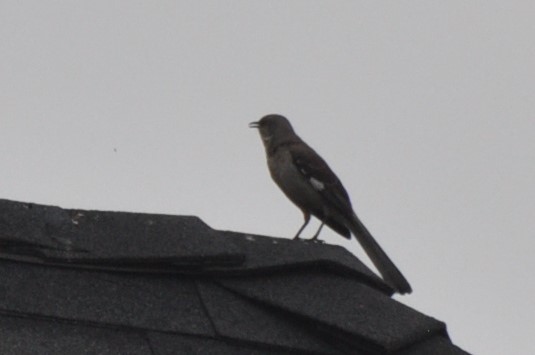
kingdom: Animalia
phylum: Chordata
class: Aves
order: Passeriformes
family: Mimidae
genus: Mimus
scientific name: Mimus polyglottos
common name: Northern mockingbird
